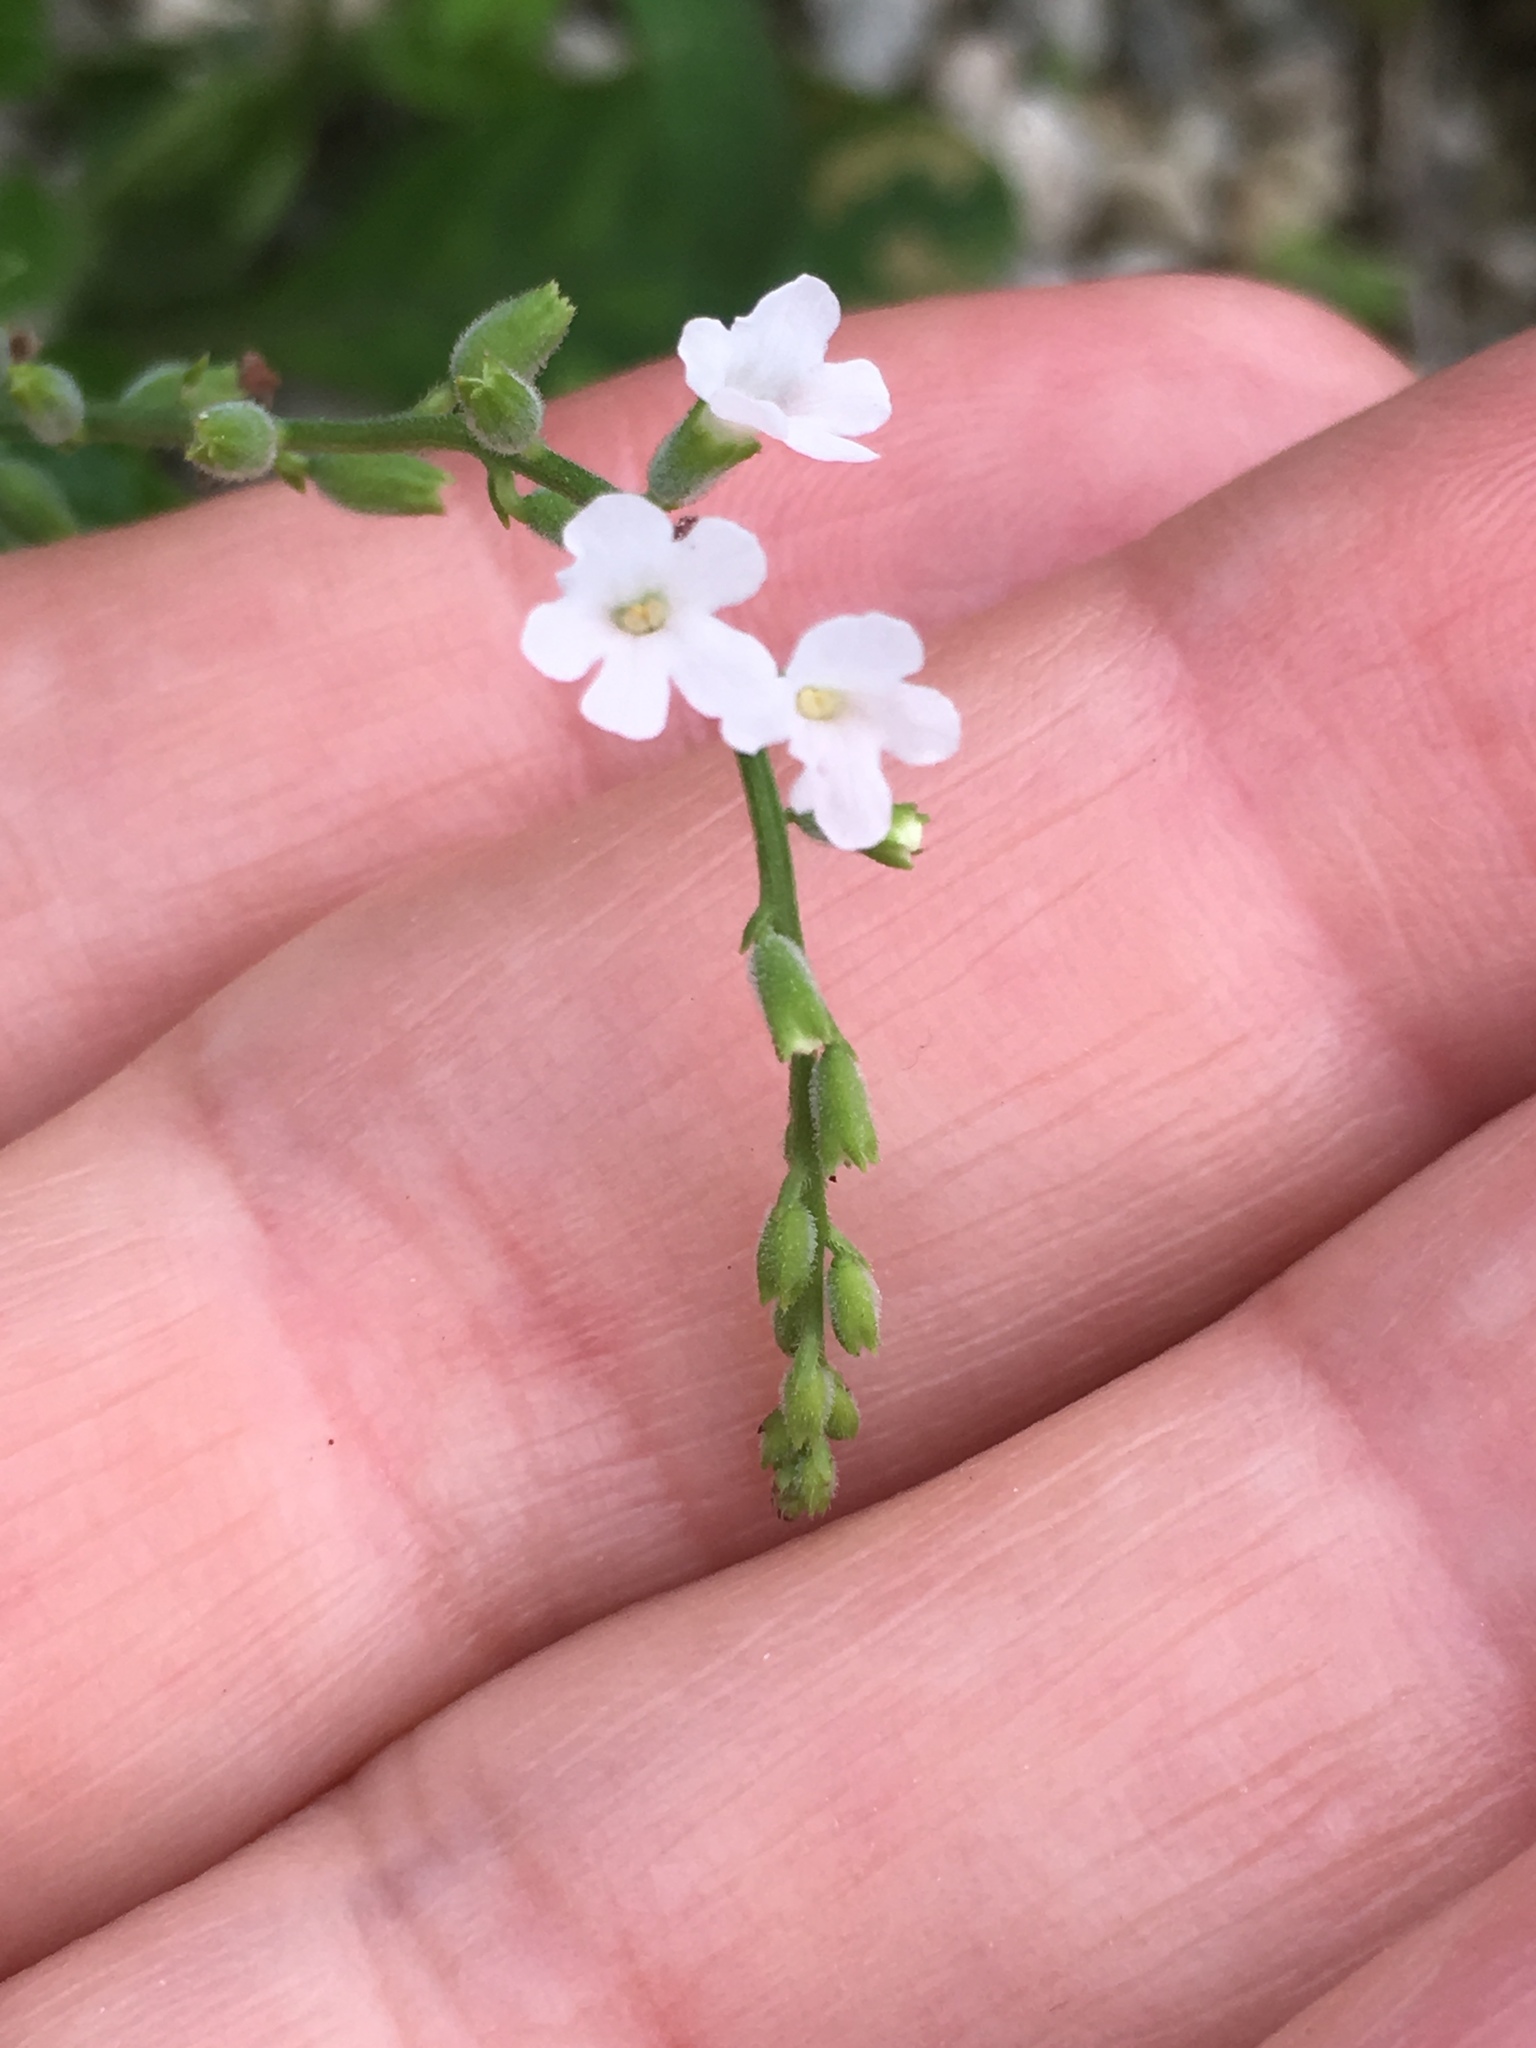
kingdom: Plantae
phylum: Tracheophyta
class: Magnoliopsida
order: Lamiales
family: Verbenaceae
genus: Priva
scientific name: Priva lappulacea
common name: Fasten-'pon-coat
